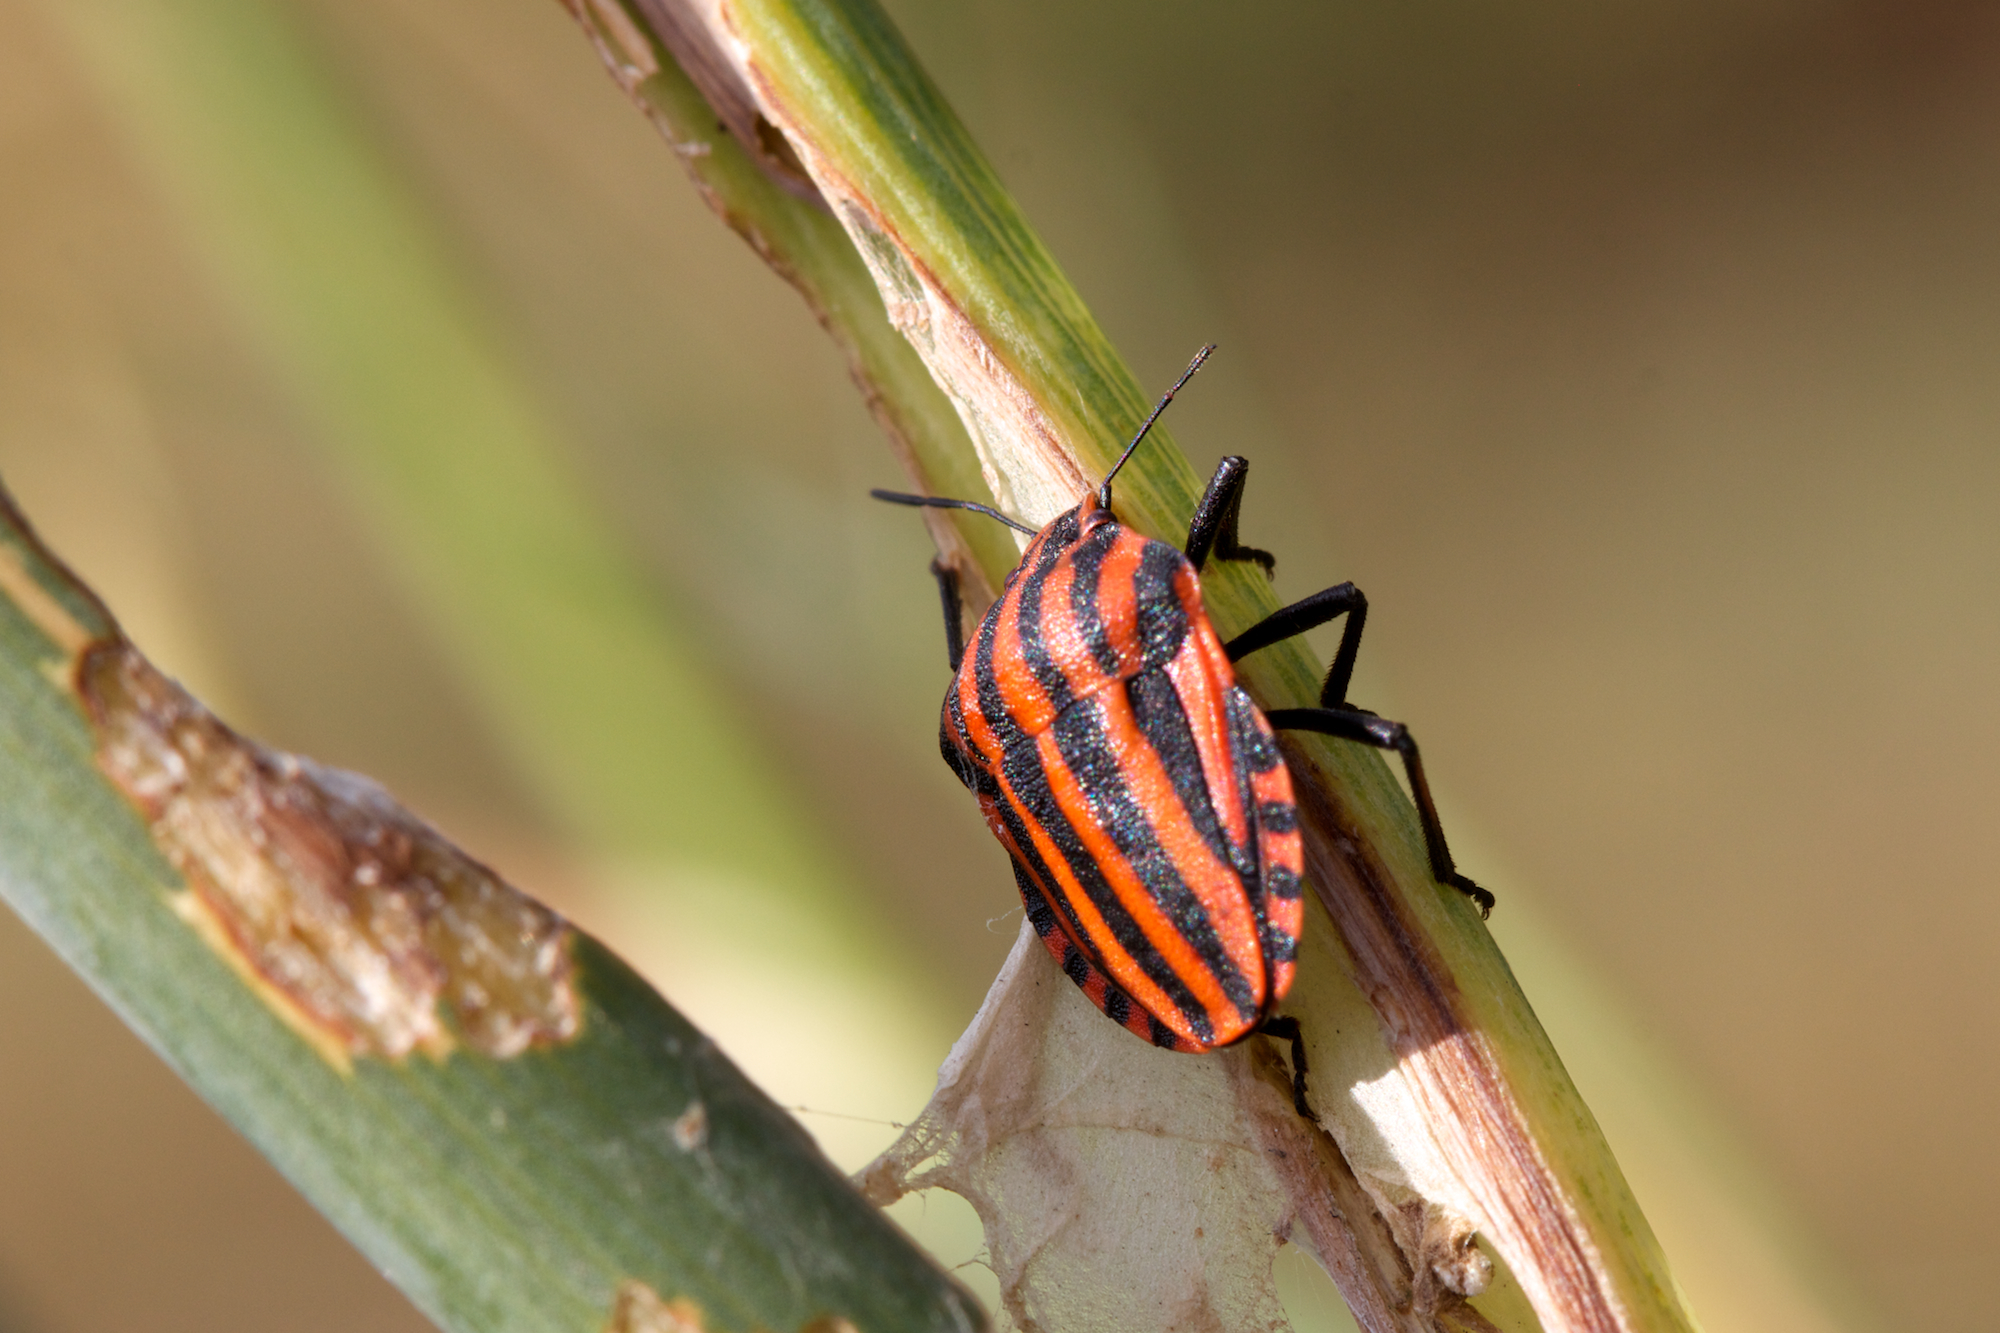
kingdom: Animalia
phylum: Arthropoda
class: Insecta
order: Hemiptera
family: Pentatomidae
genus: Graphosoma
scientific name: Graphosoma italicum
